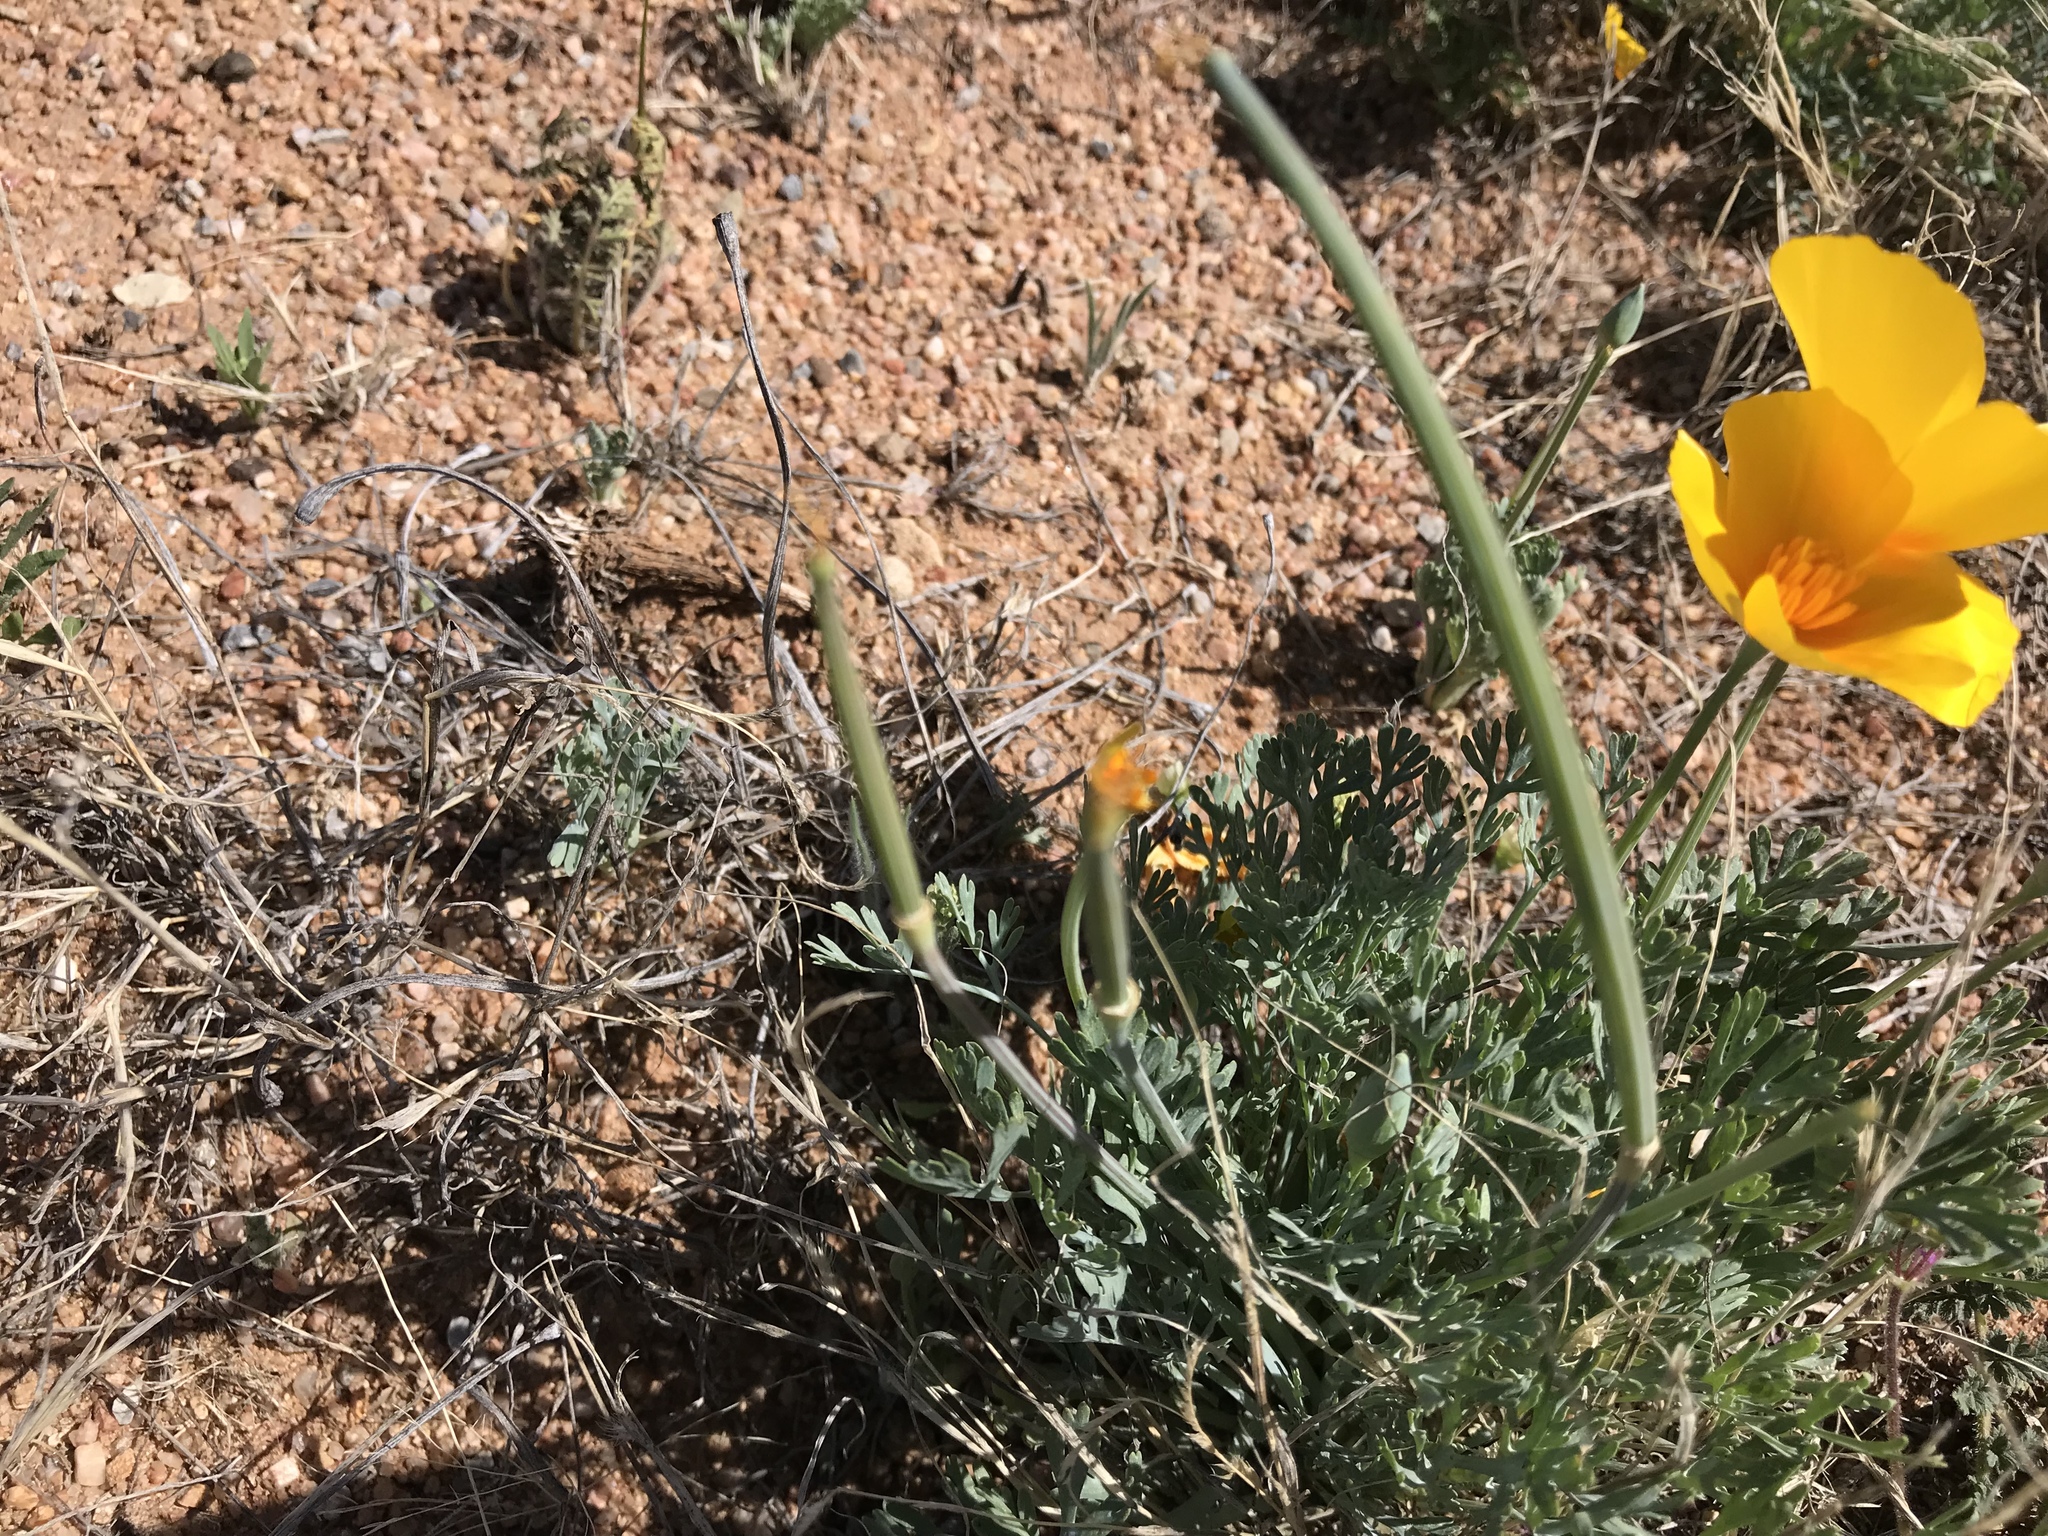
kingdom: Plantae
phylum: Tracheophyta
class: Magnoliopsida
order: Ranunculales
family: Papaveraceae
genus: Eschscholzia
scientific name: Eschscholzia californica
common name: California poppy
